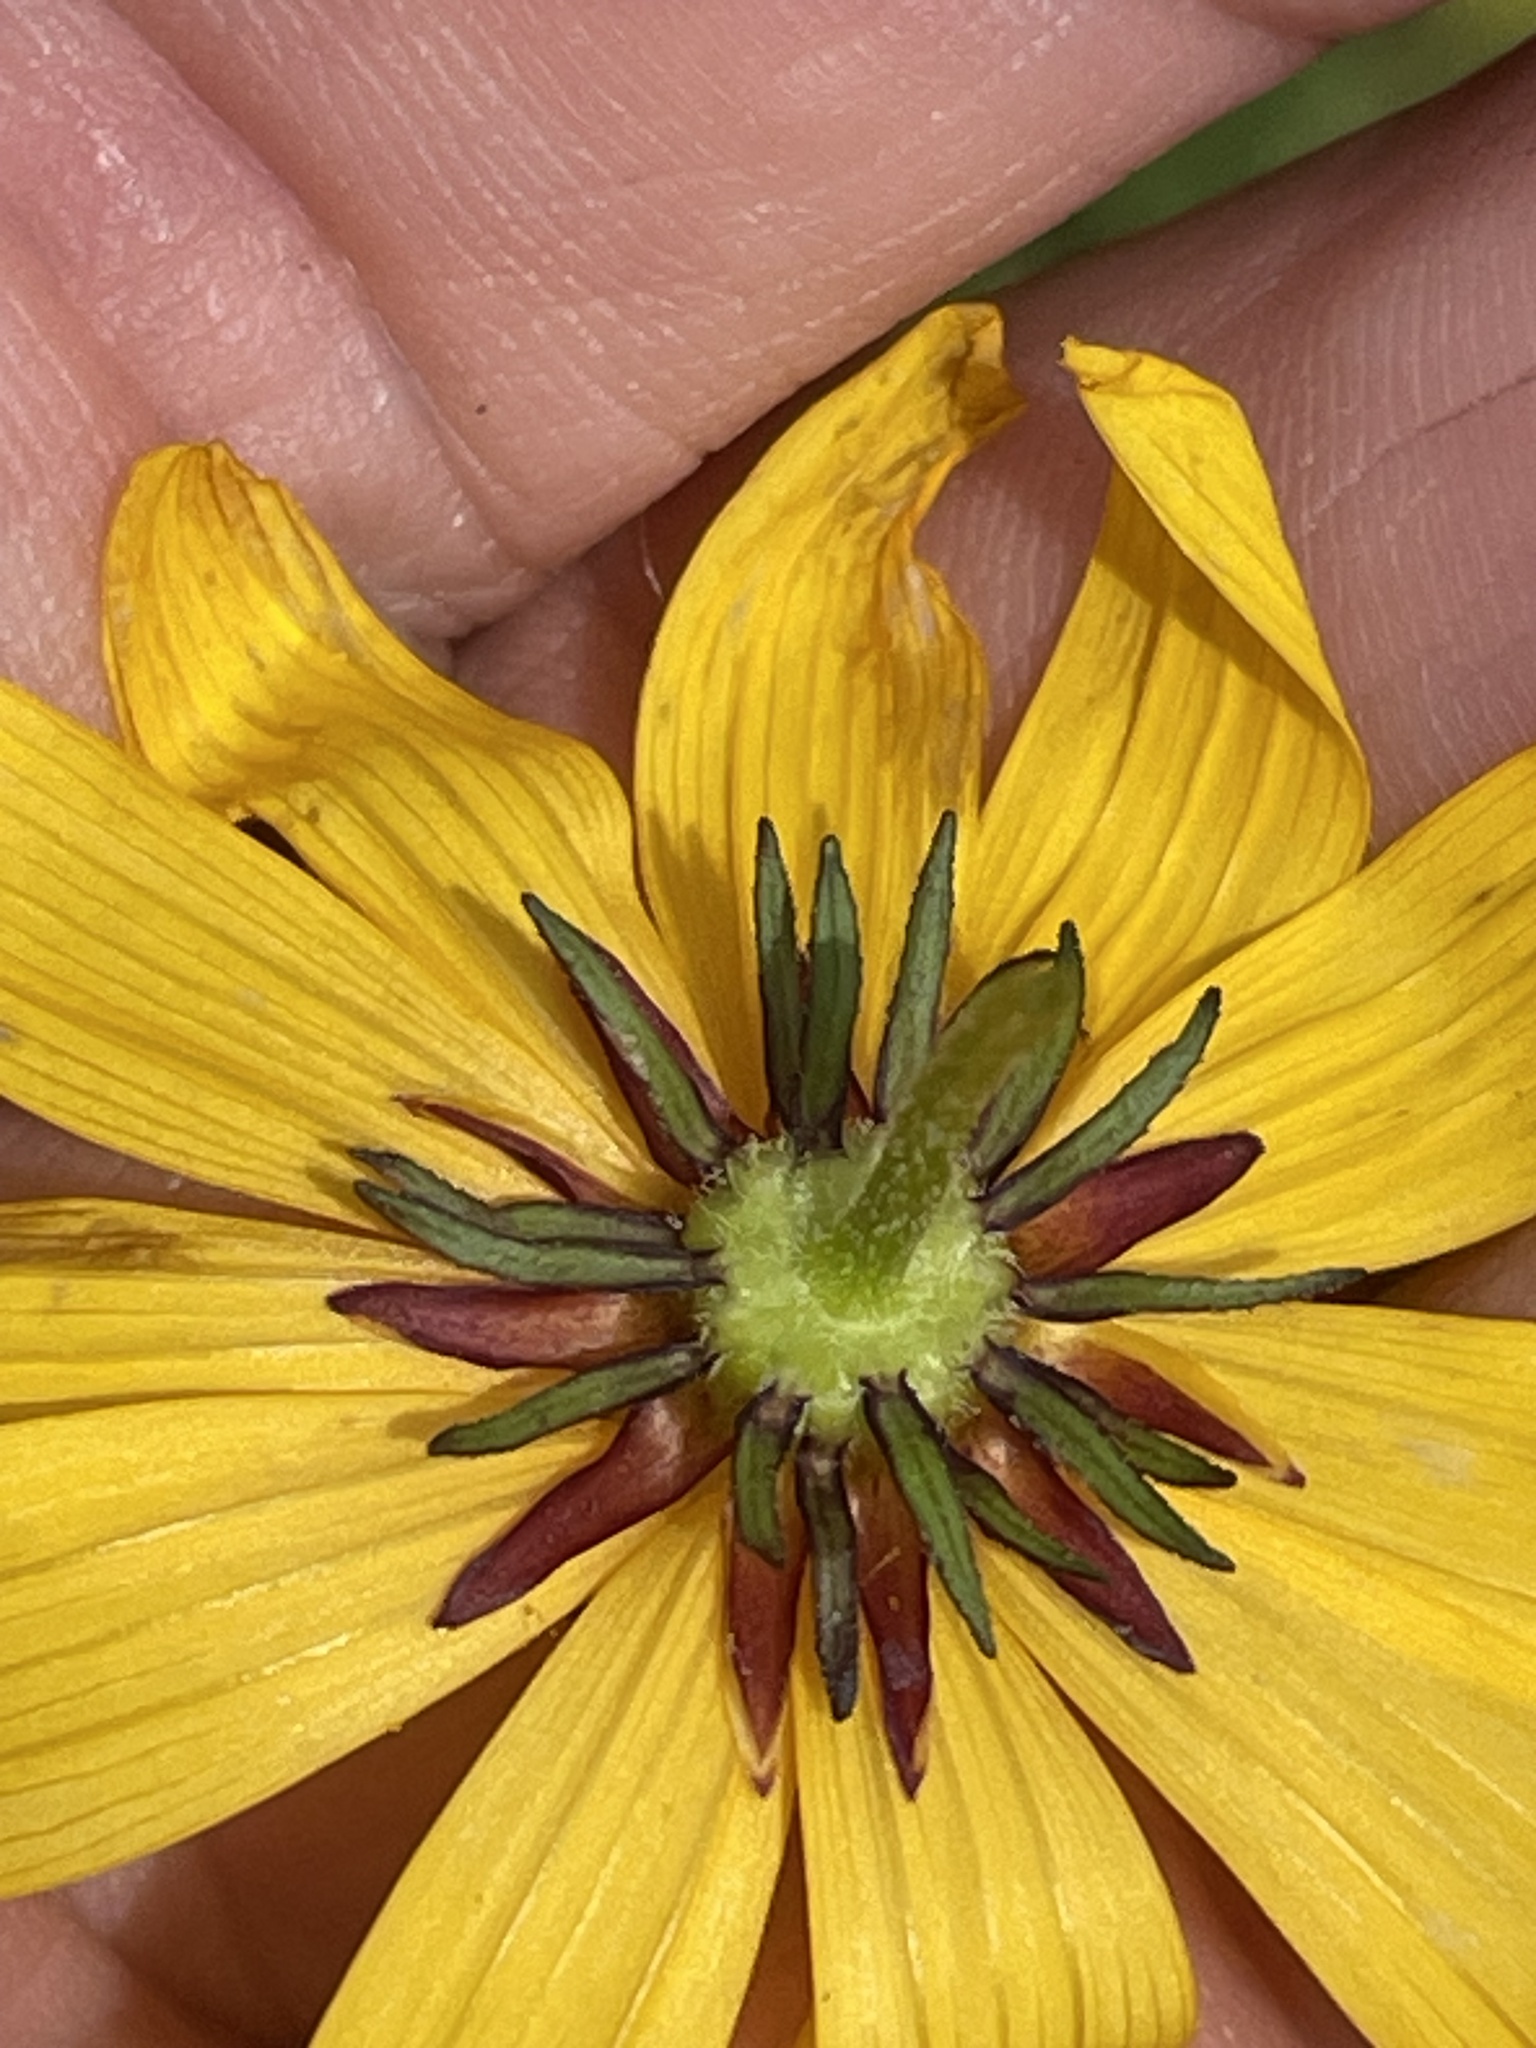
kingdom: Plantae
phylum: Tracheophyta
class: Magnoliopsida
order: Asterales
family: Asteraceae
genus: Bidens
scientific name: Bidens polylepis
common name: Awnless beggarticks
